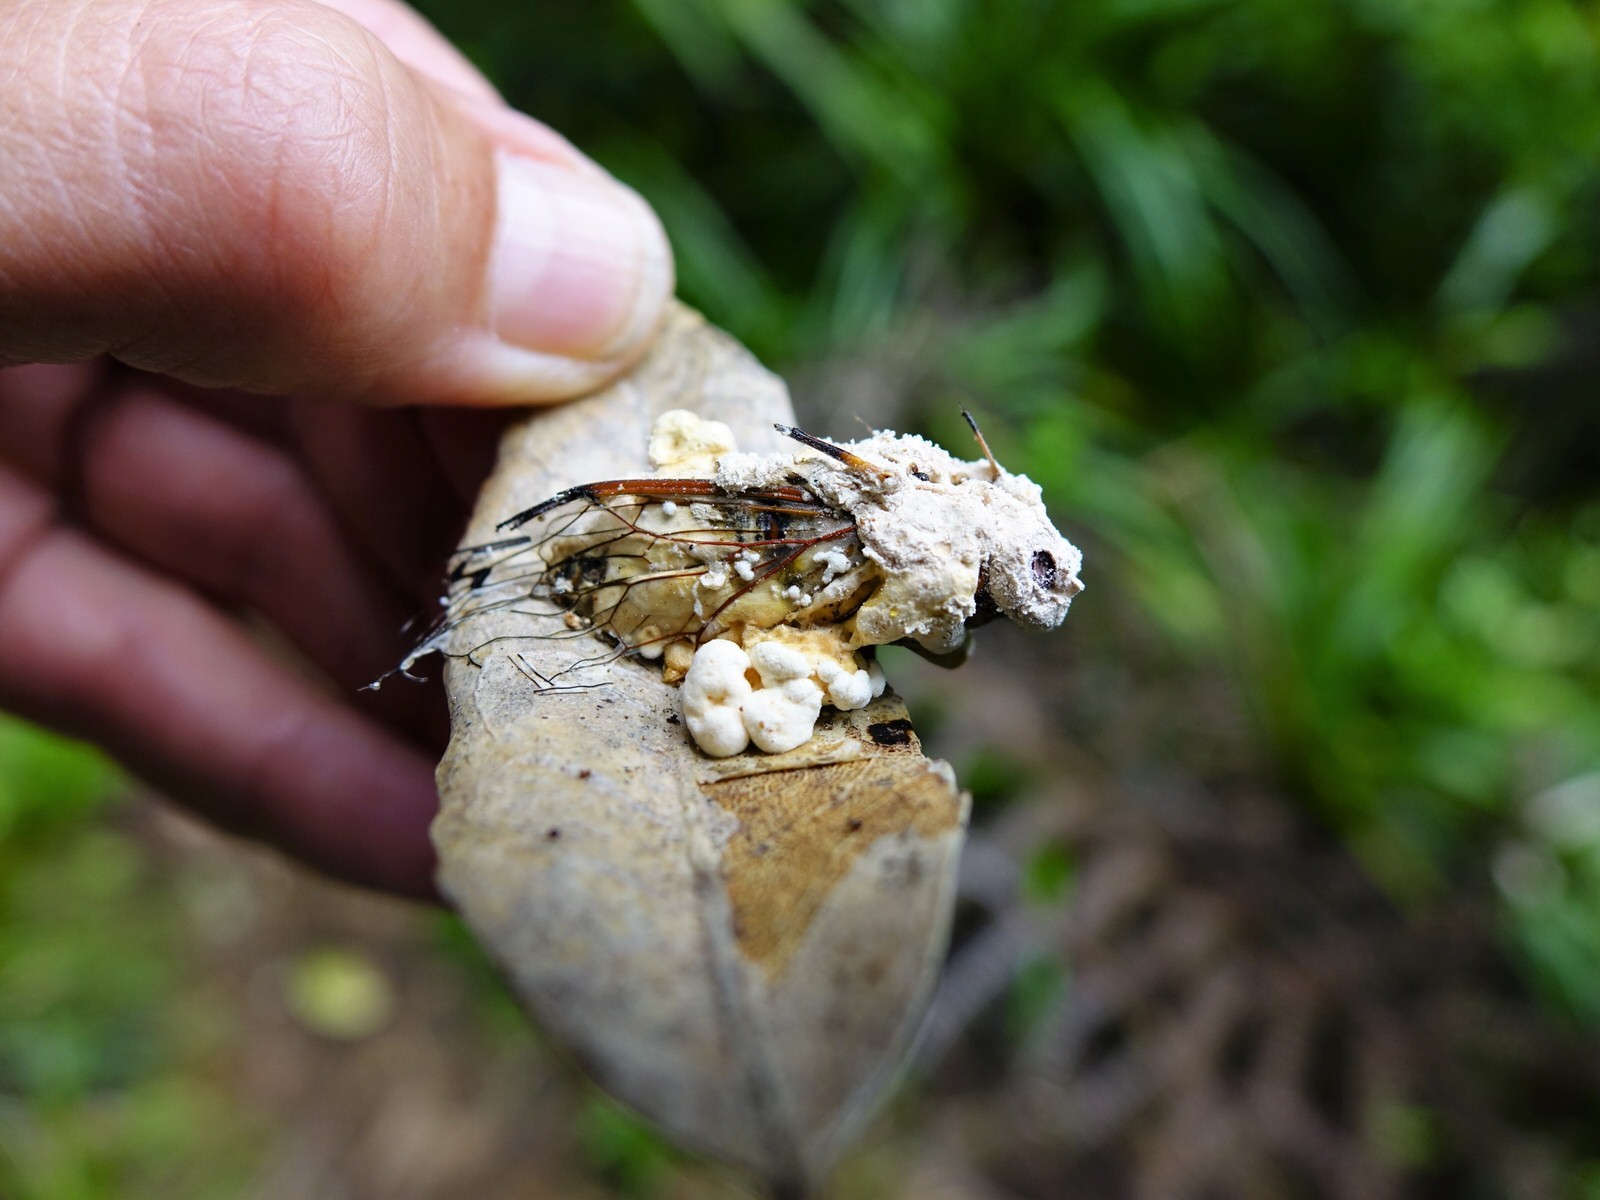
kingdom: Fungi
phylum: Ascomycota
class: Sordariomycetes
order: Hypocreales
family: Cordycipitaceae
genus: Beauveria
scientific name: Beauveria bassiana
